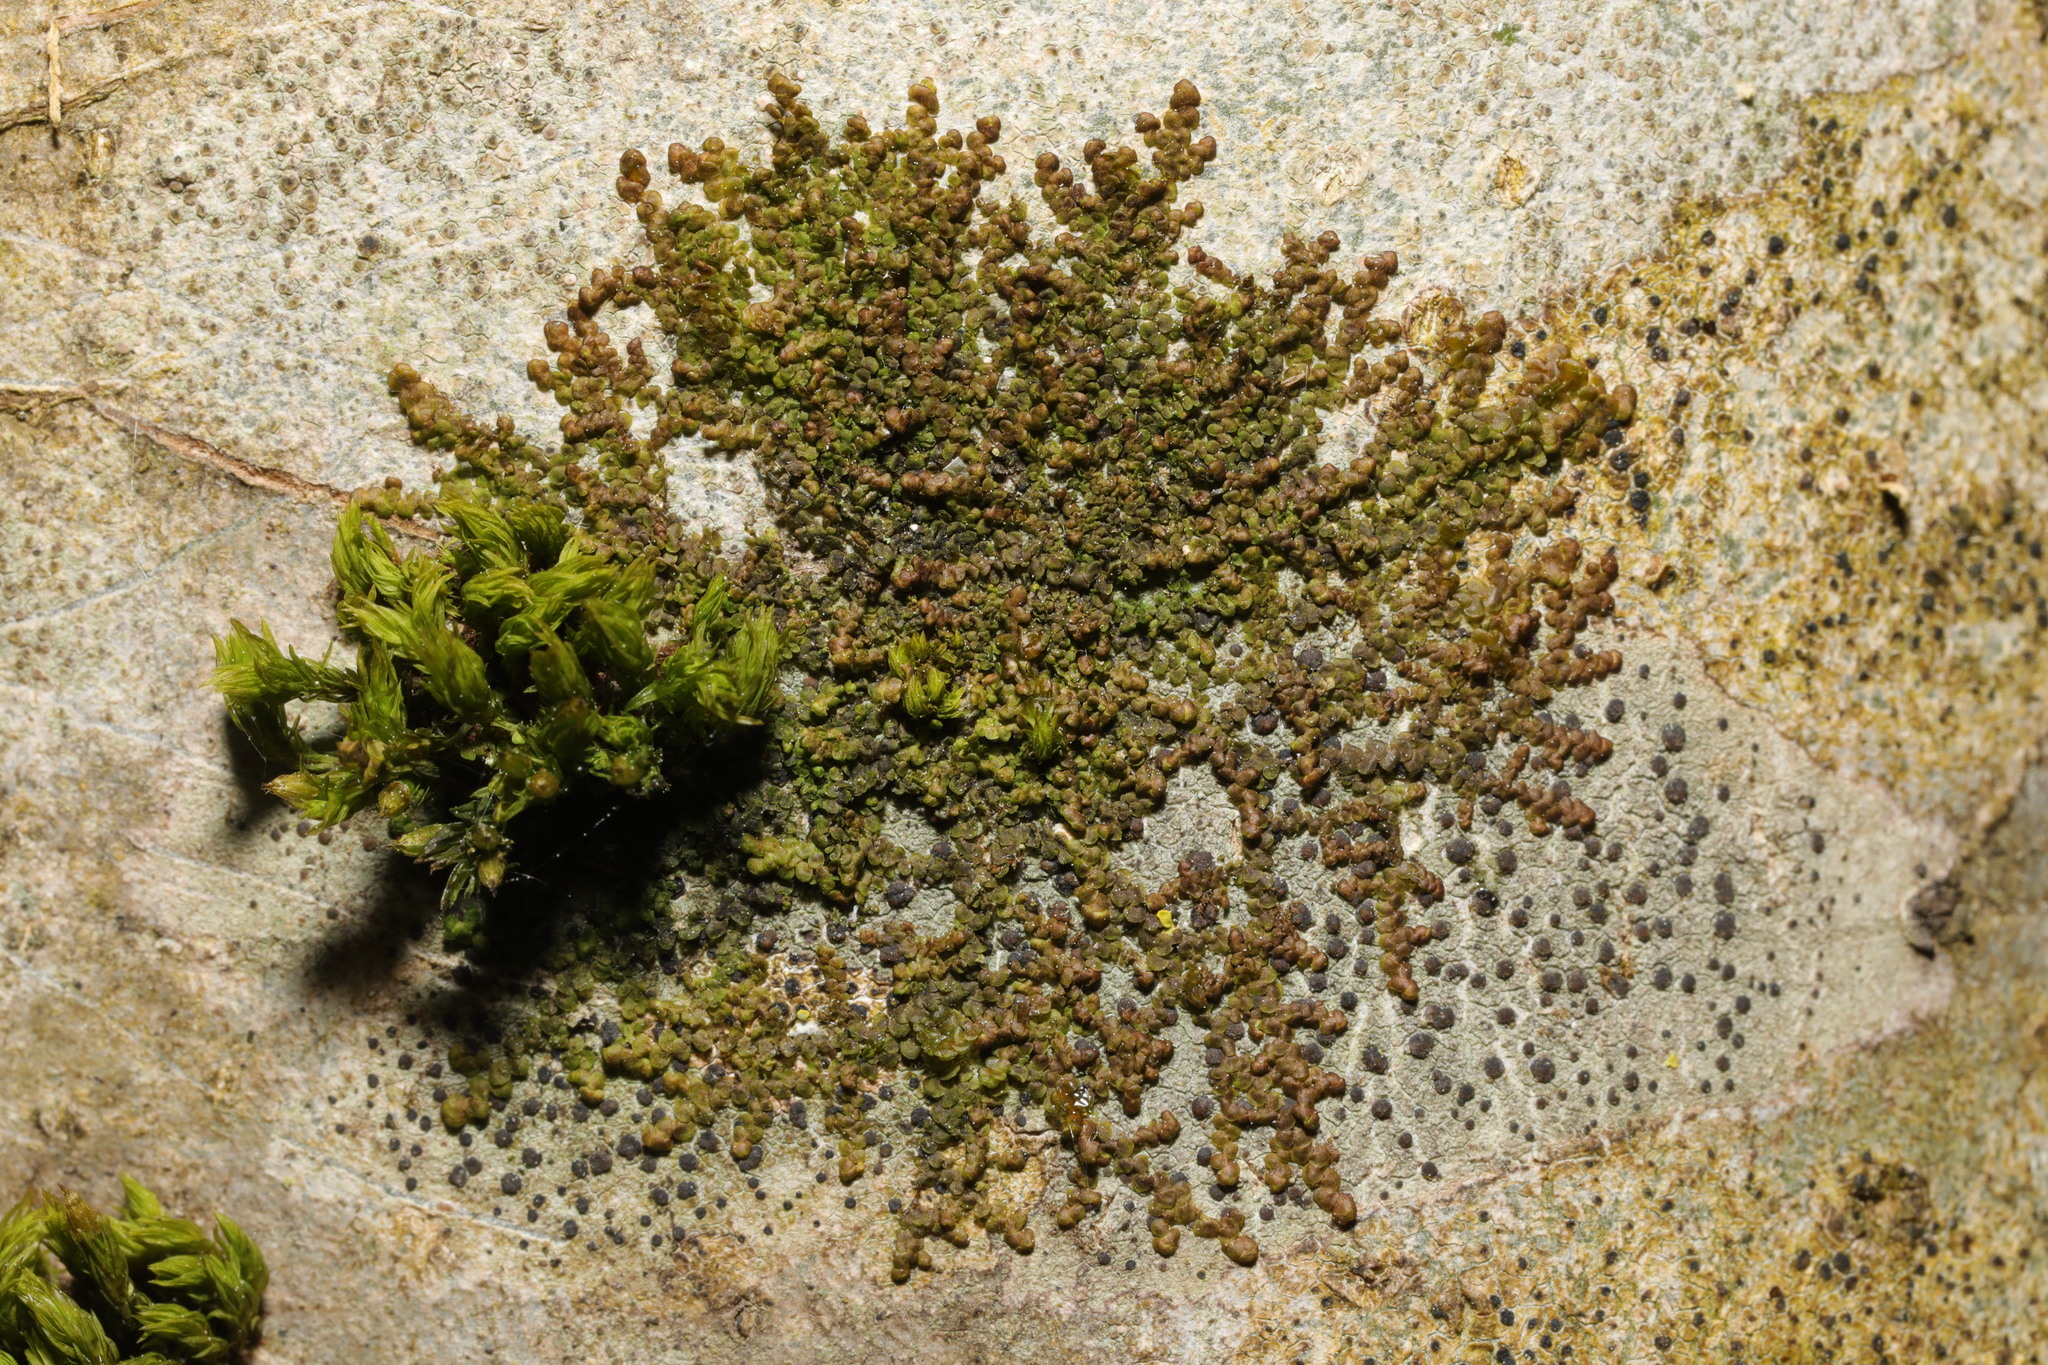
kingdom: Plantae
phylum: Marchantiophyta
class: Jungermanniopsida
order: Porellales
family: Frullaniaceae
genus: Frullania
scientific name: Frullania dilatata
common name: Dilated scalewort
